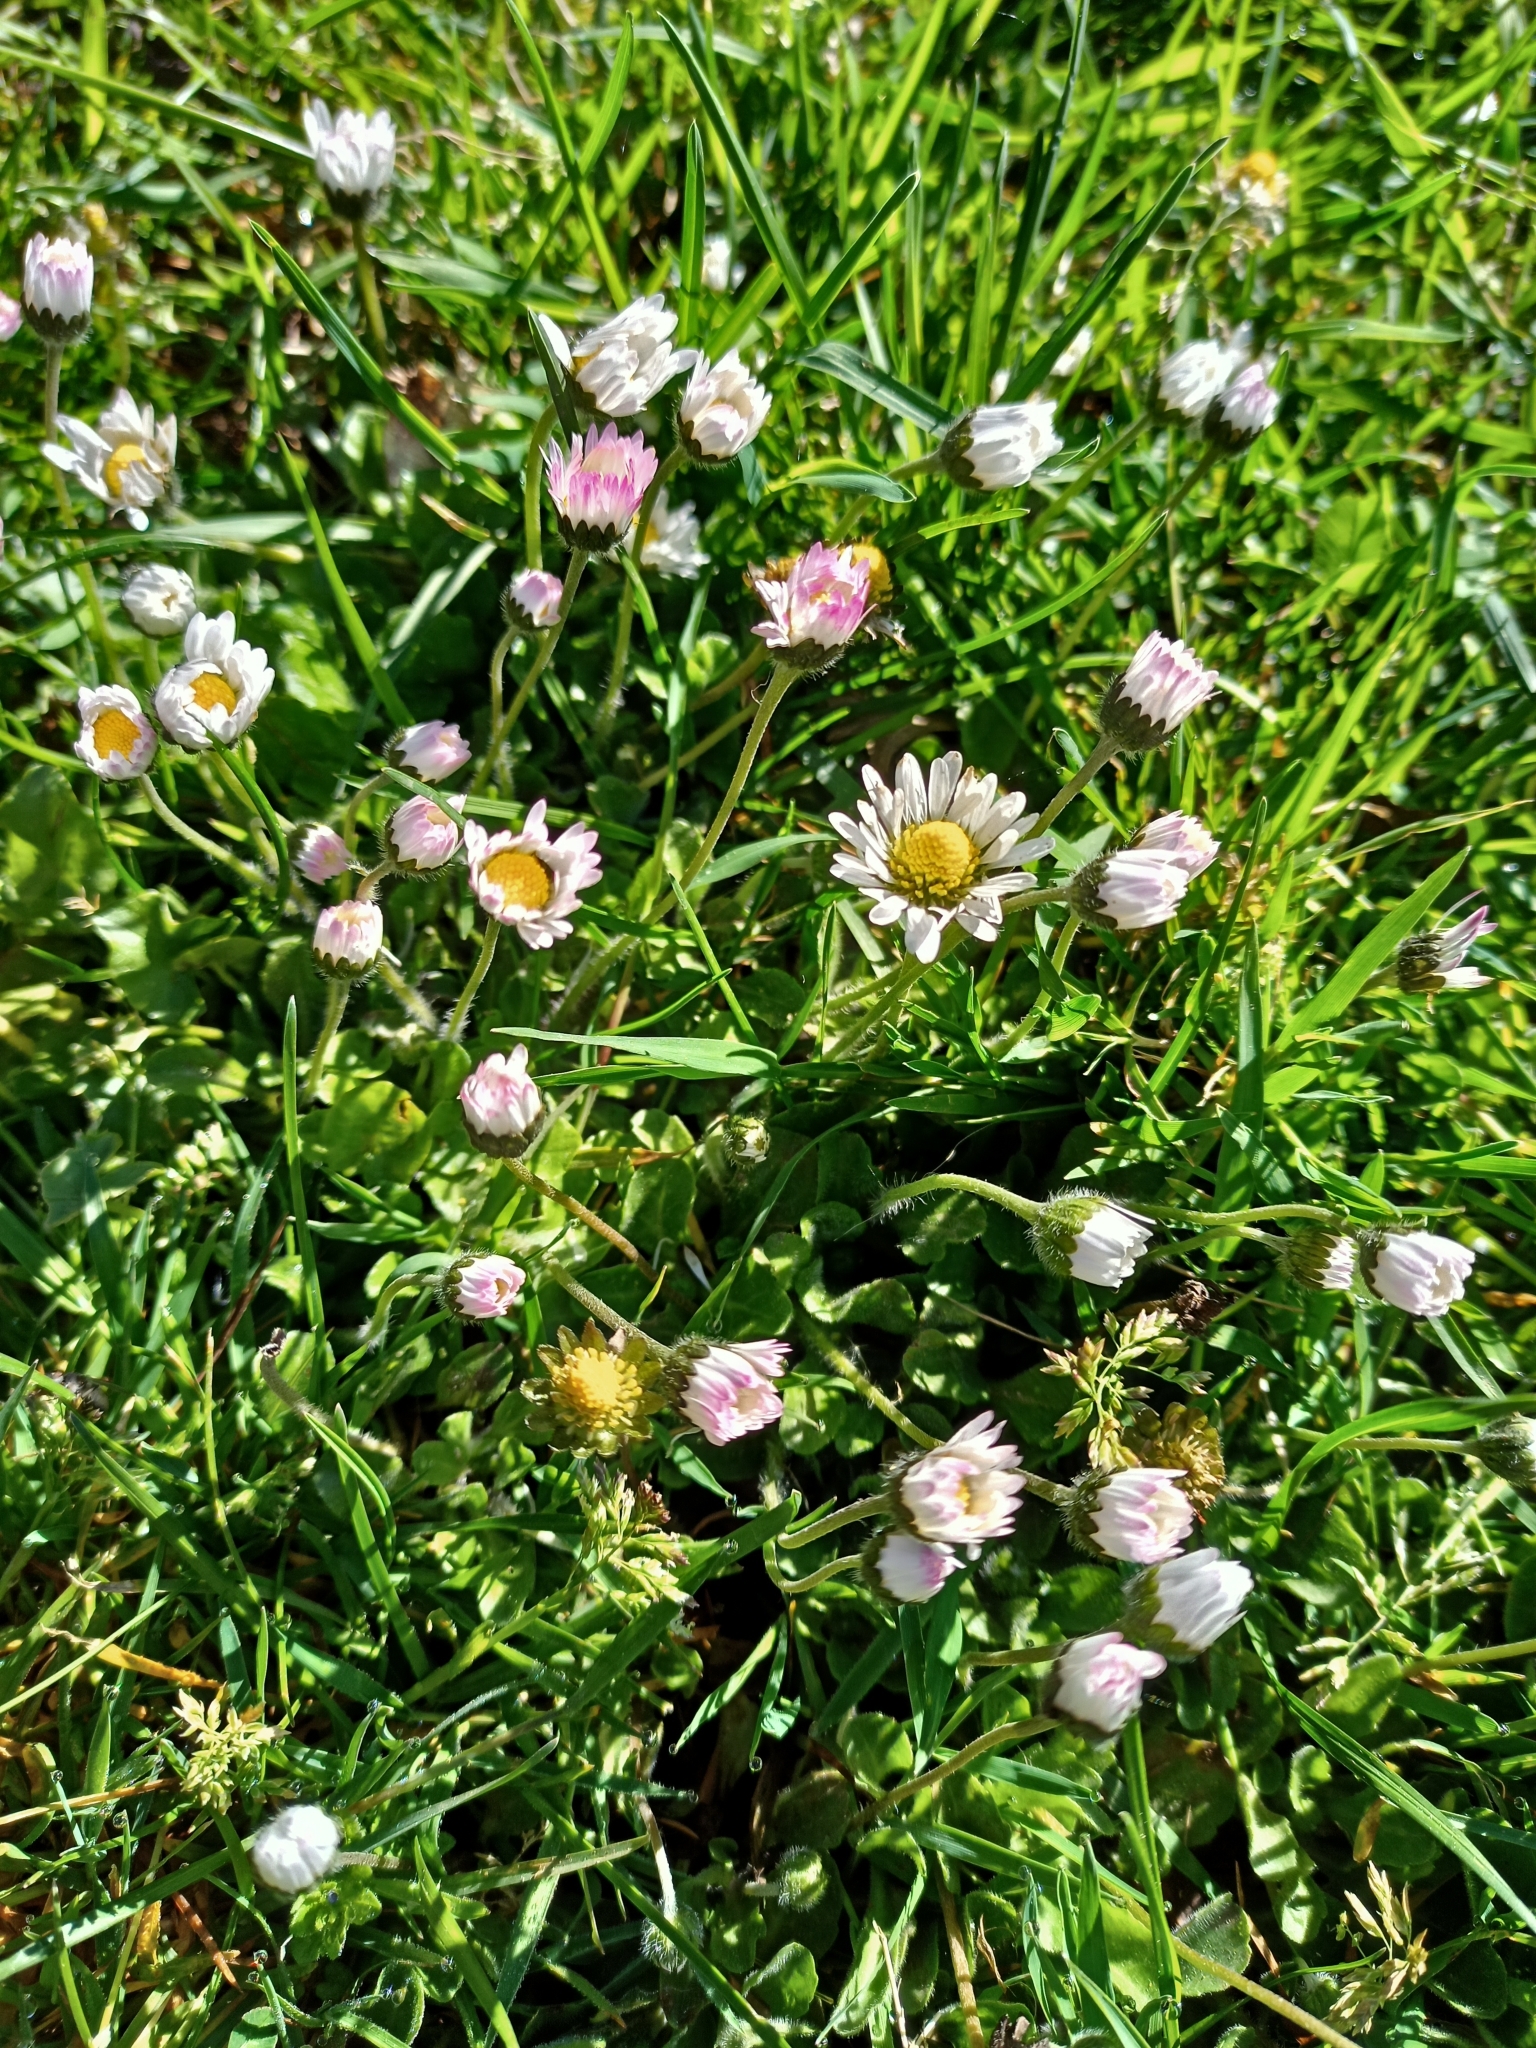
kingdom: Plantae
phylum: Tracheophyta
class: Magnoliopsida
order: Asterales
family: Asteraceae
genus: Bellis
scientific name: Bellis perennis
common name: Lawndaisy
